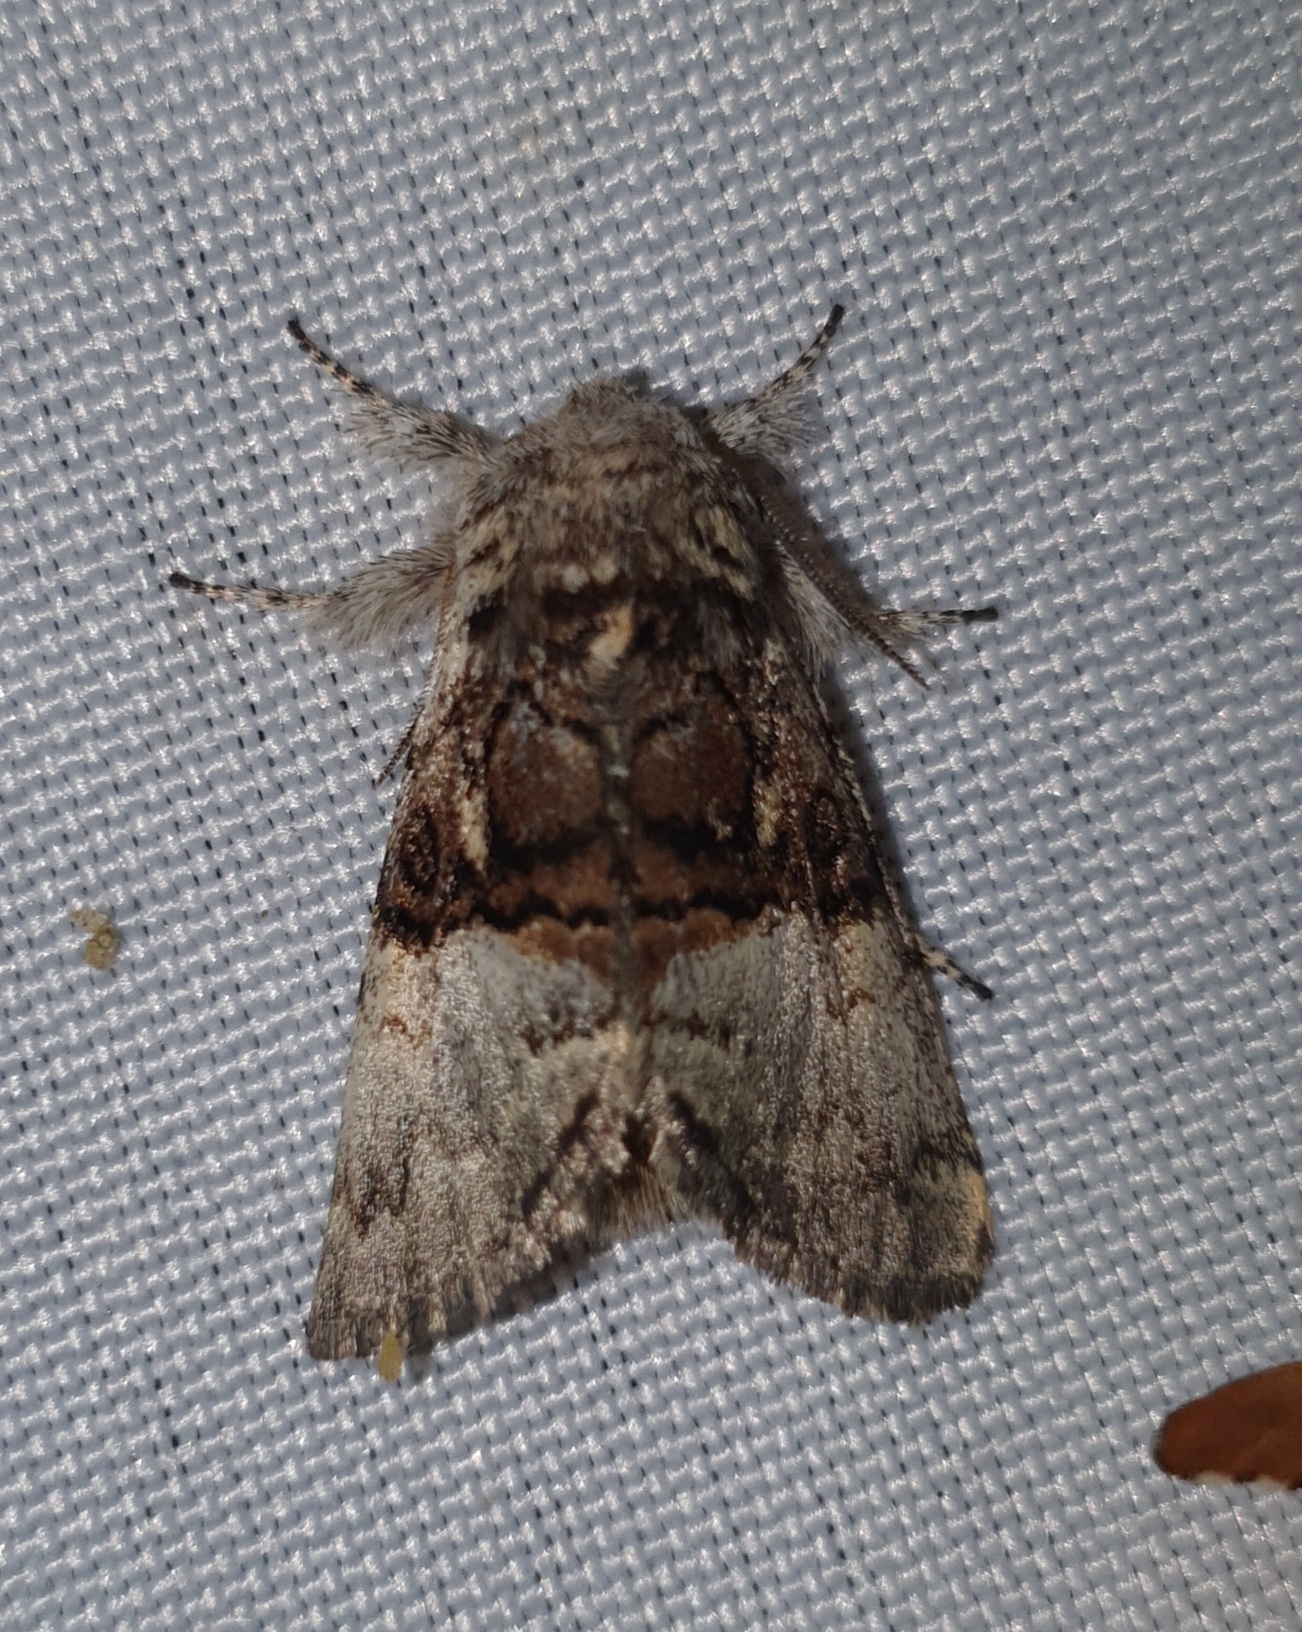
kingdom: Animalia
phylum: Arthropoda
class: Insecta
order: Lepidoptera
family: Noctuidae
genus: Colocasia
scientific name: Colocasia coryli
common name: Nut-tree tussock
